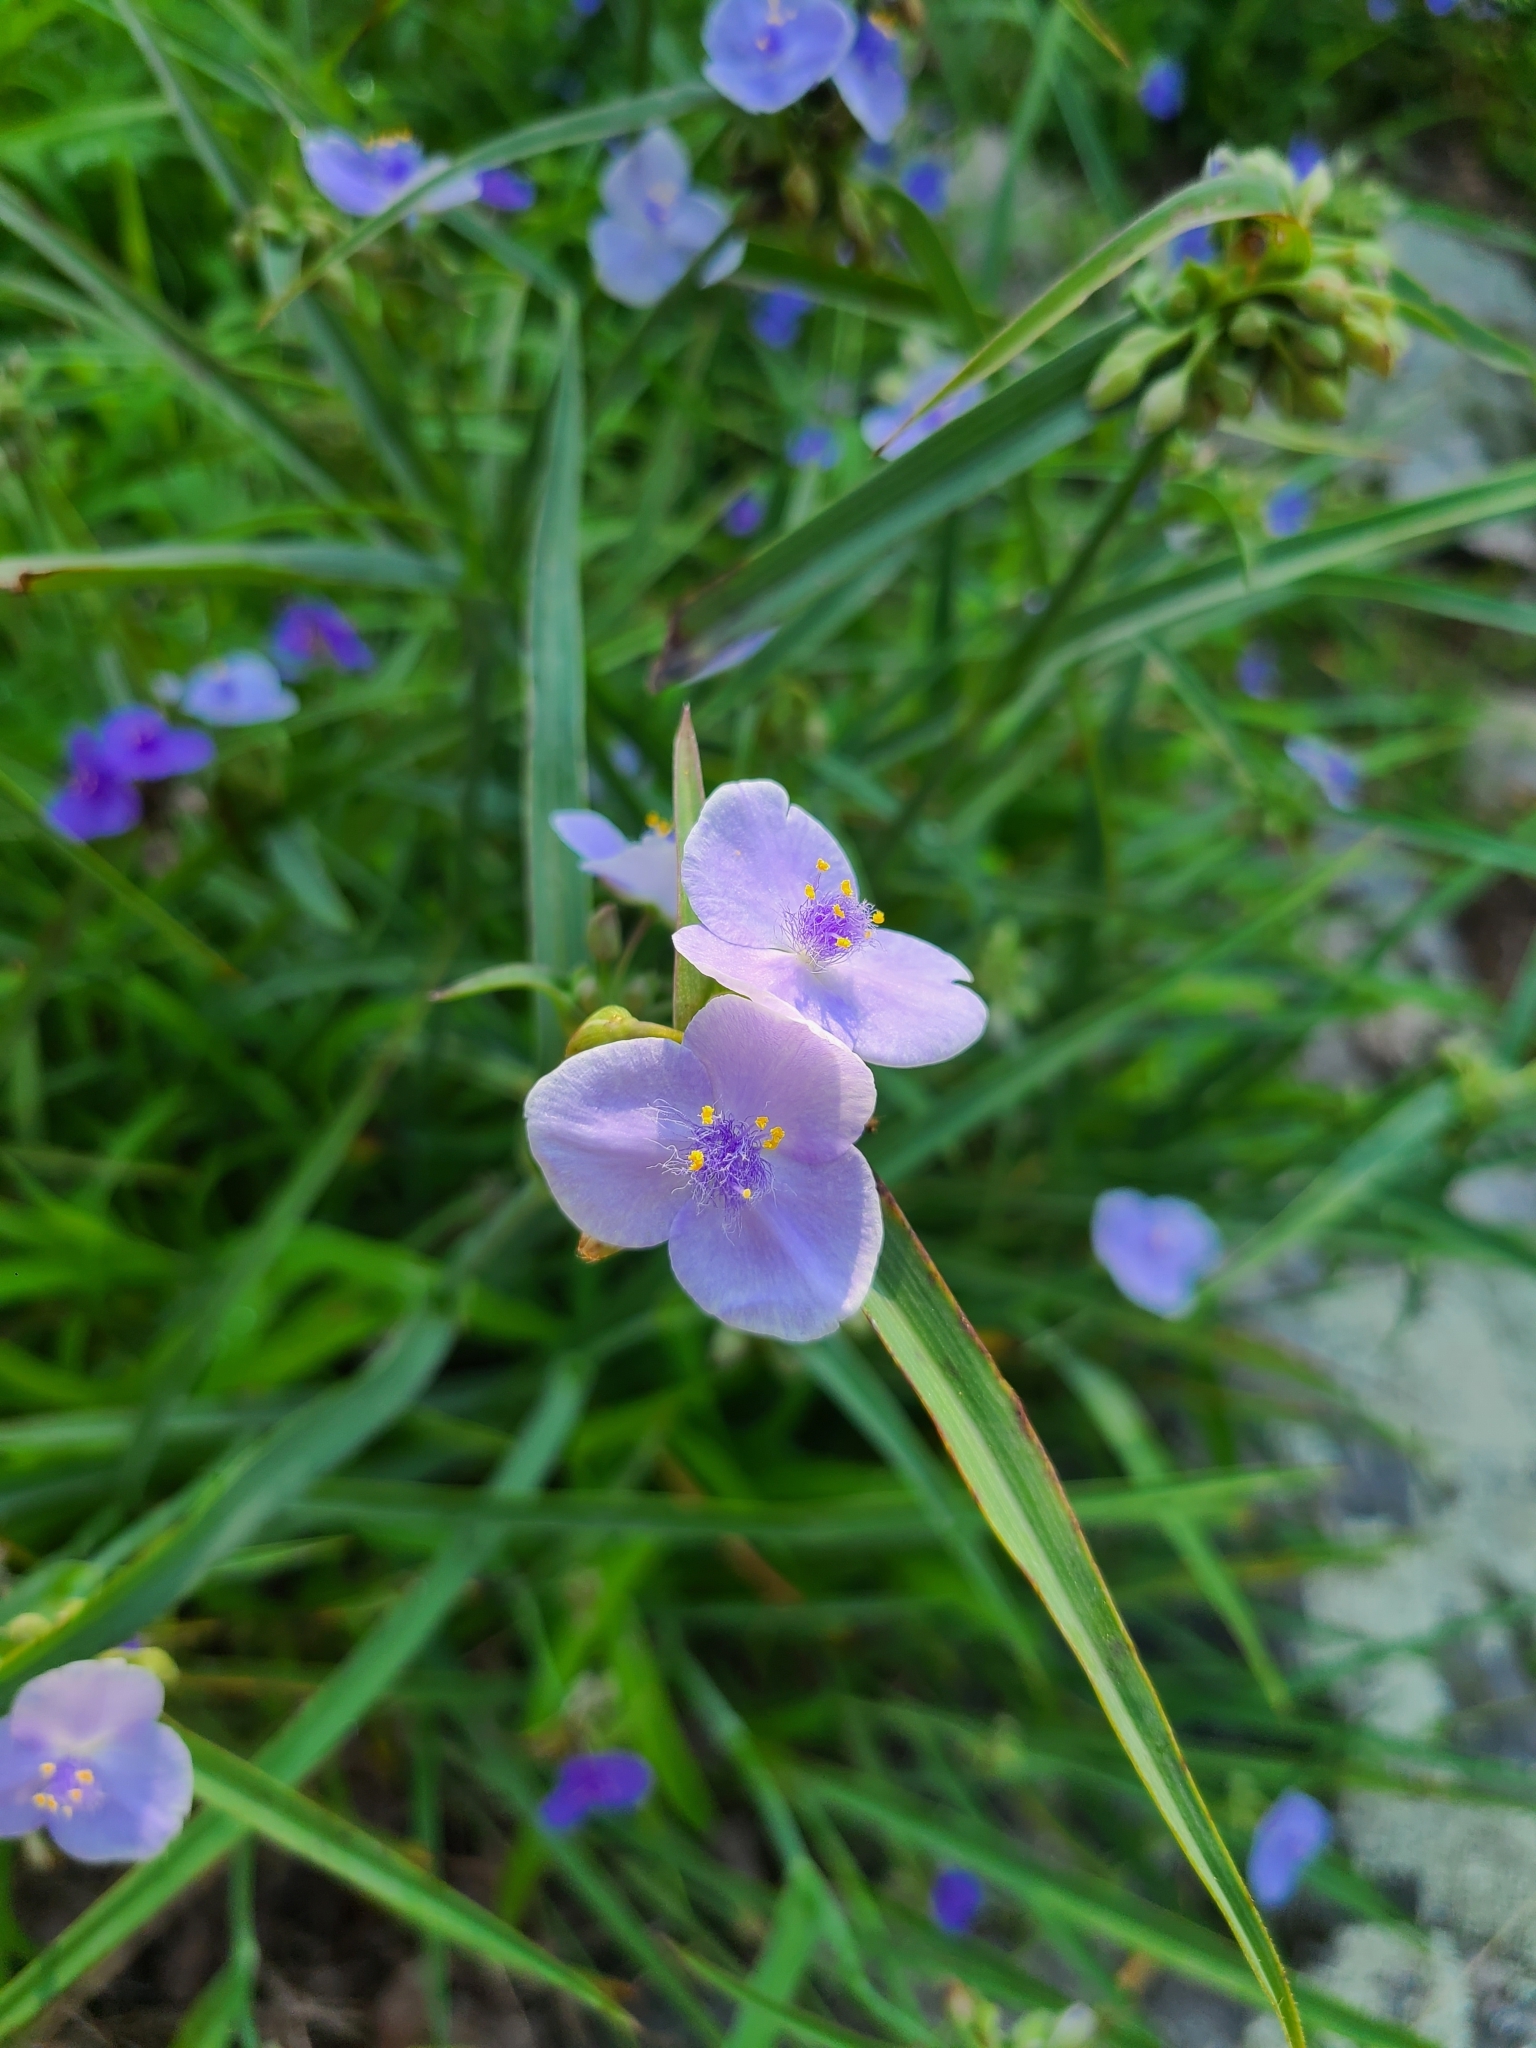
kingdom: Plantae
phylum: Tracheophyta
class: Liliopsida
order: Commelinales
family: Commelinaceae
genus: Tradescantia
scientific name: Tradescantia ohiensis
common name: Ohio spiderwort
